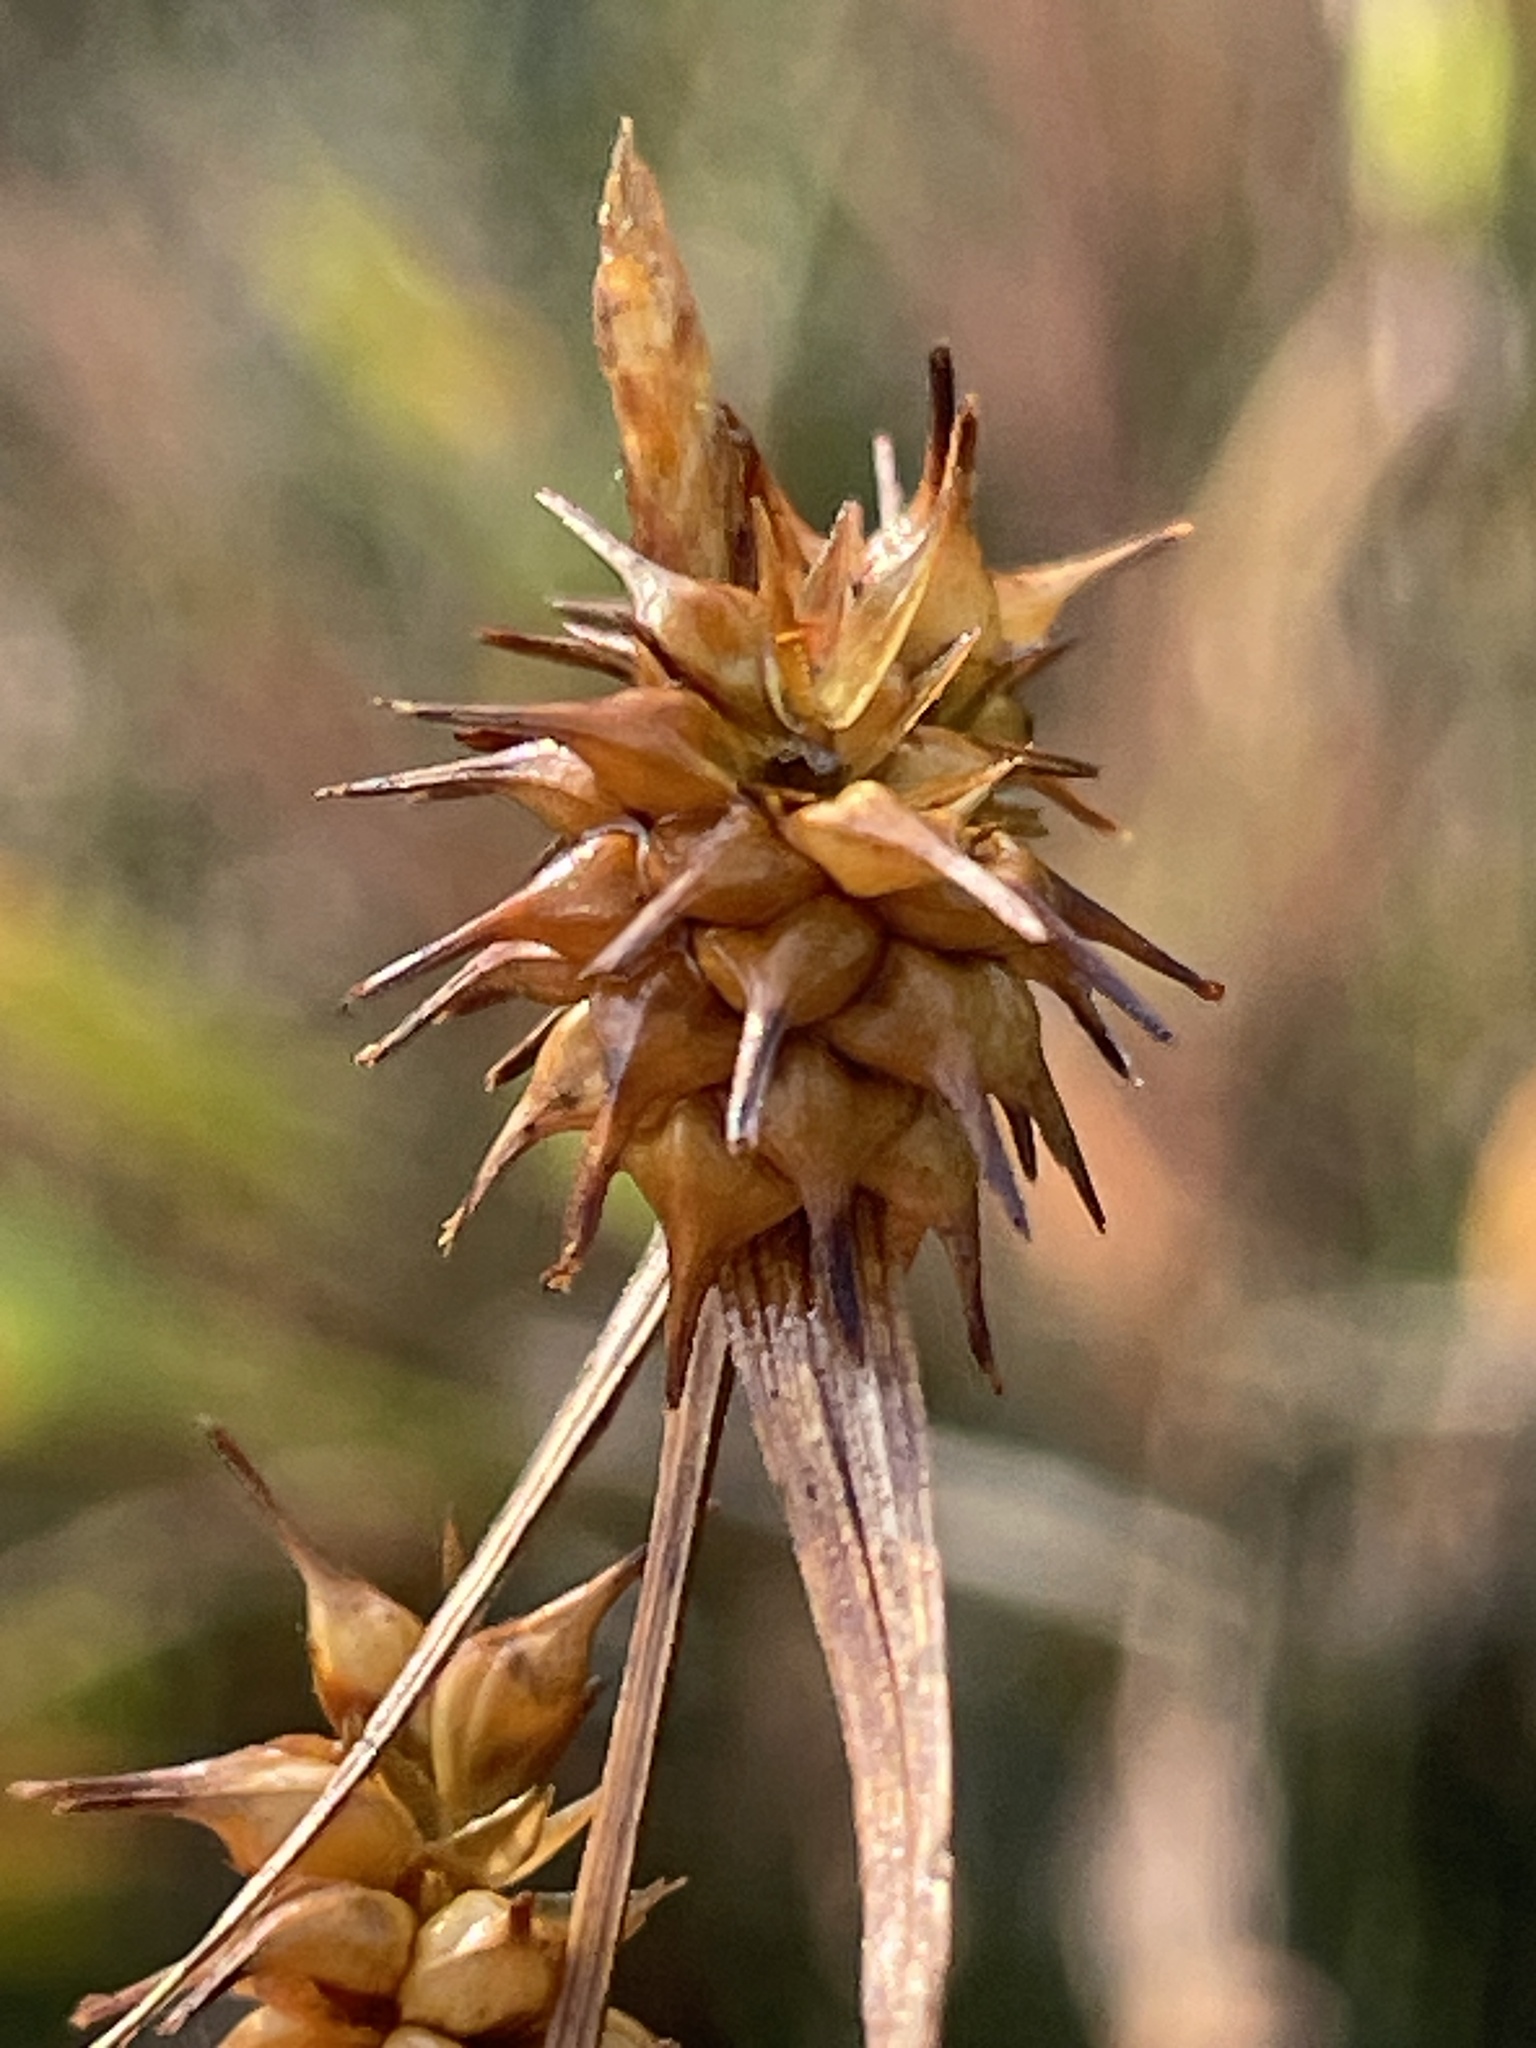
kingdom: Plantae
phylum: Tracheophyta
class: Liliopsida
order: Poales
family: Cyperaceae
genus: Carex
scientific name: Carex flava
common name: Large yellow-sedge
